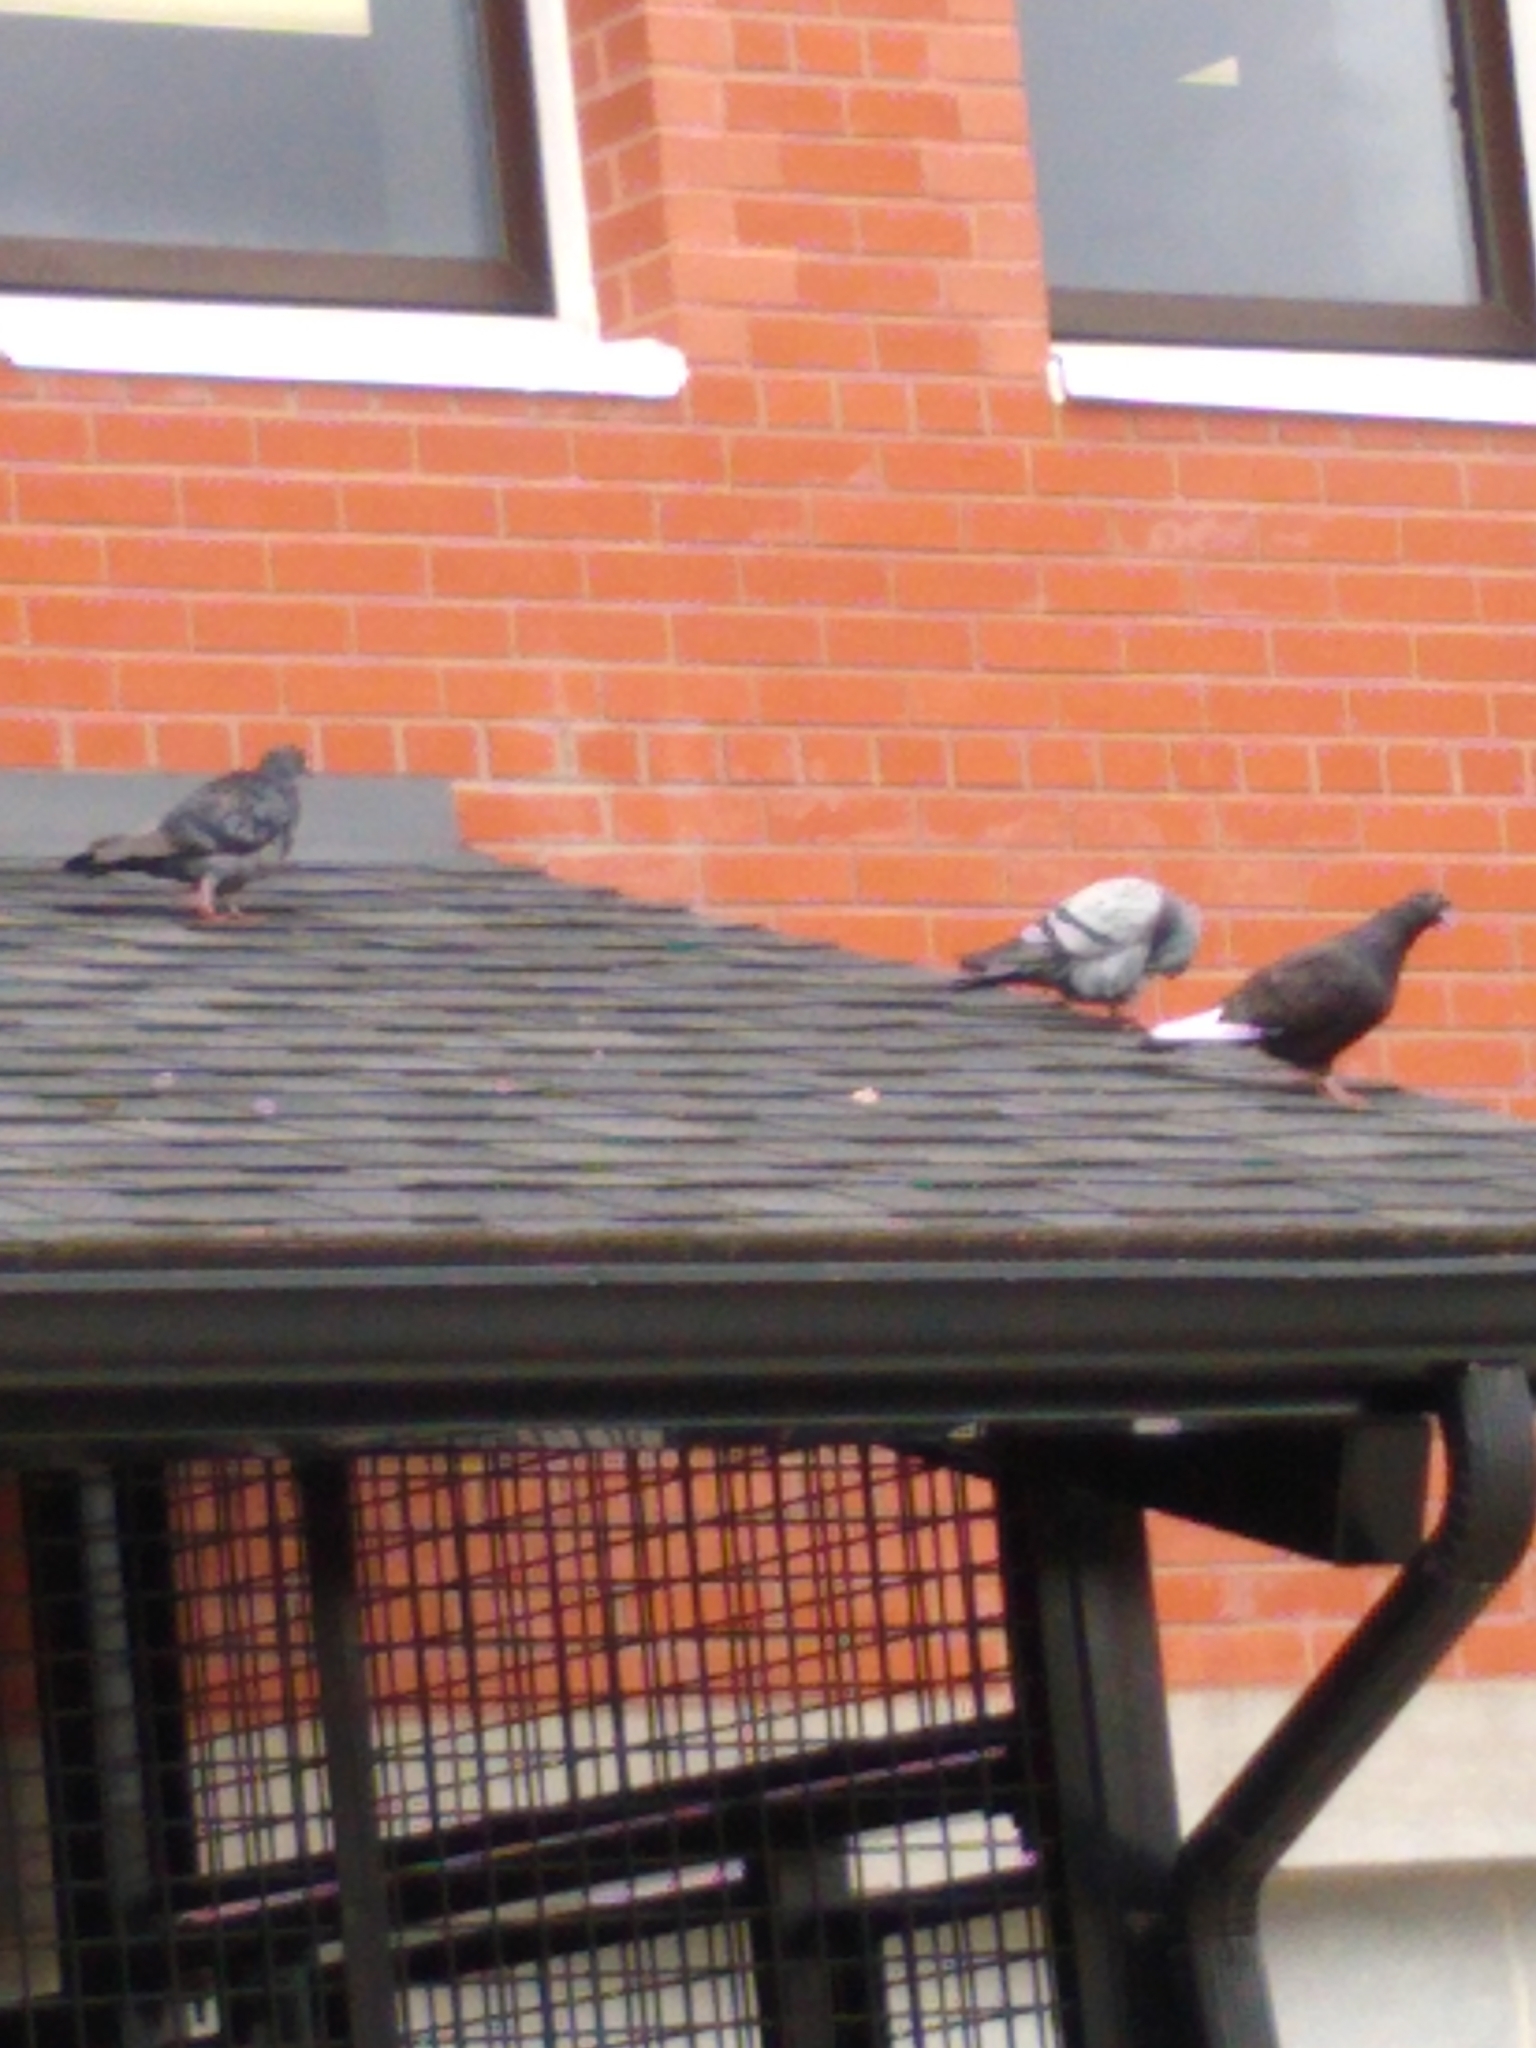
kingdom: Animalia
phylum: Chordata
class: Aves
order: Columbiformes
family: Columbidae
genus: Columba
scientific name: Columba livia
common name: Rock pigeon
